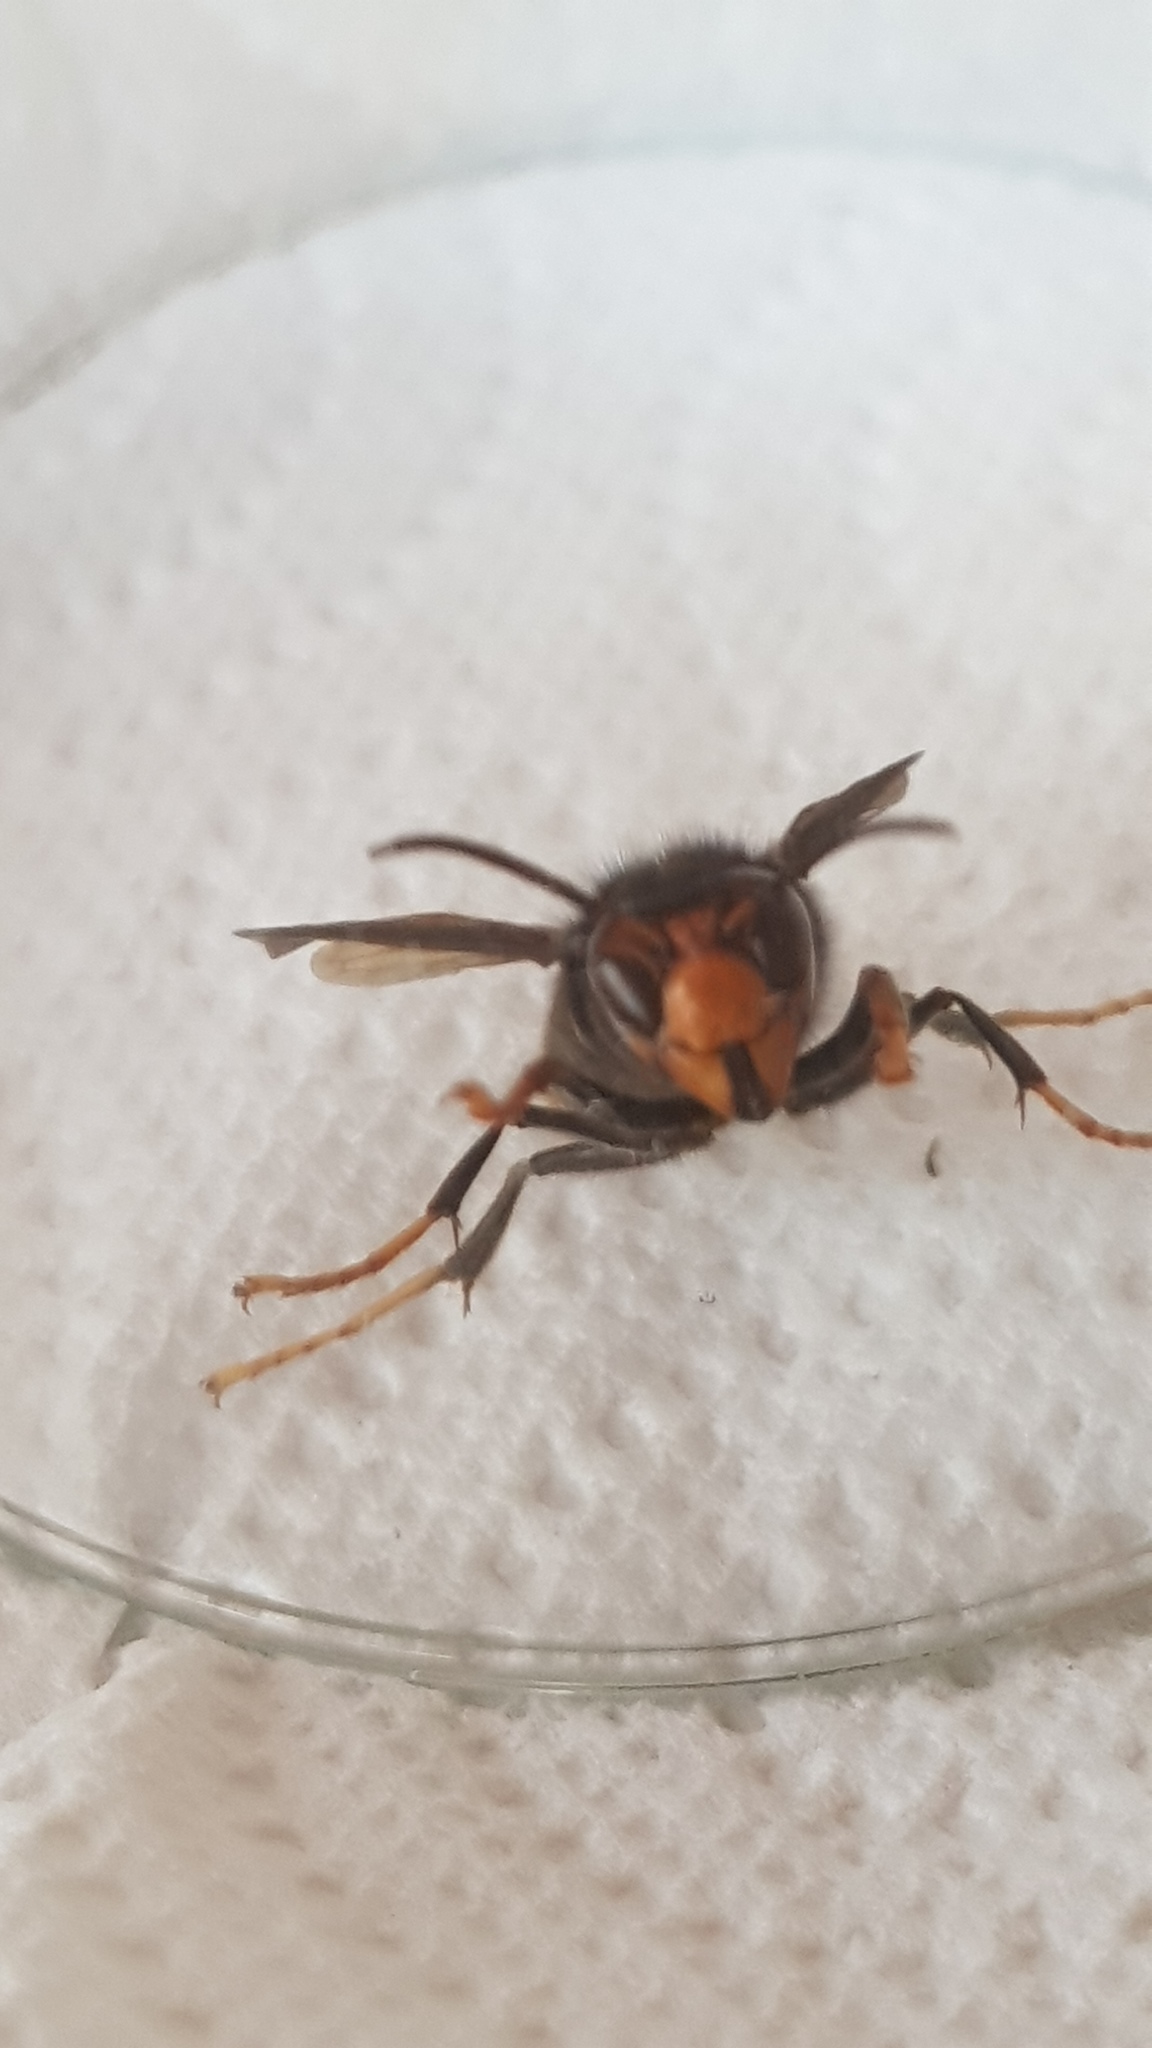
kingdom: Animalia
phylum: Arthropoda
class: Insecta
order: Hymenoptera
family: Vespidae
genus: Vespa
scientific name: Vespa velutina
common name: Asian hornet
